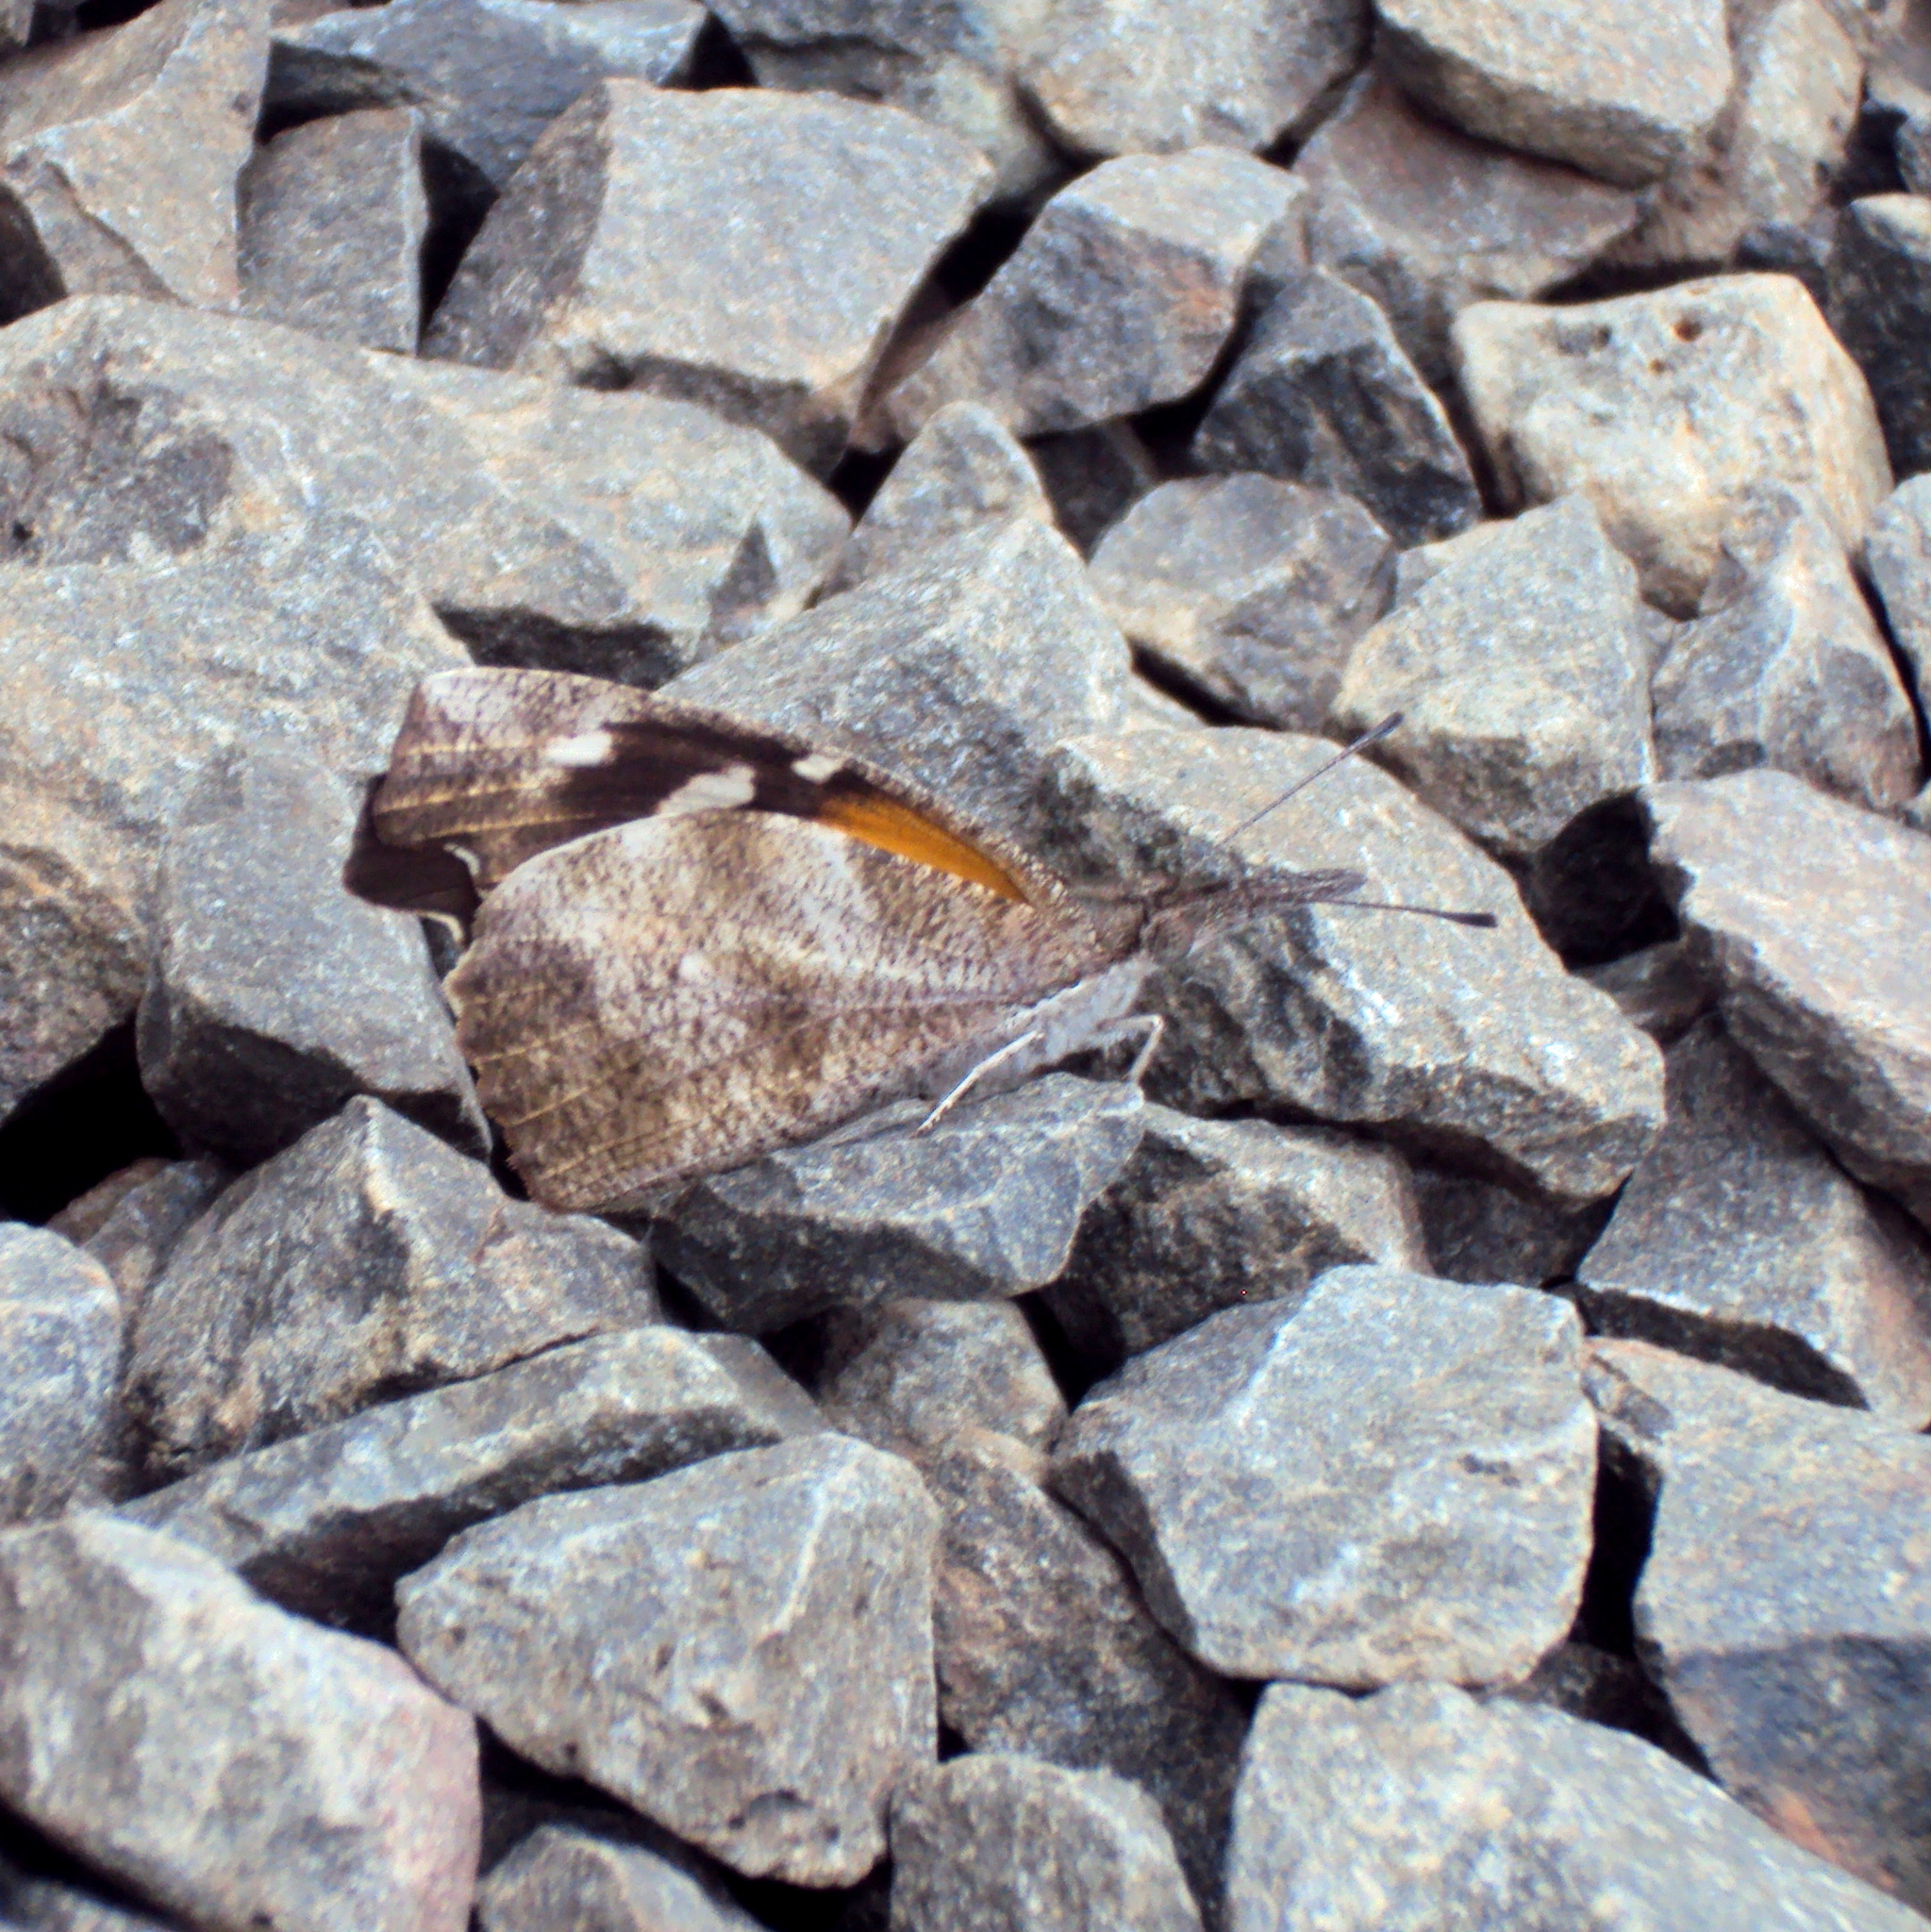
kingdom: Animalia
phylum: Arthropoda
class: Insecta
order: Lepidoptera
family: Nymphalidae
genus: Libytheana
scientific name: Libytheana carinenta
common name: American snout
